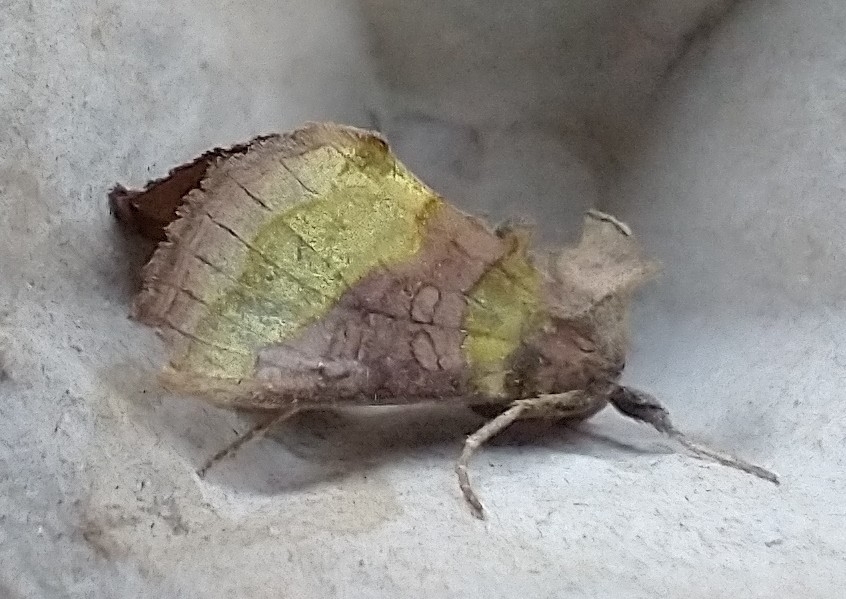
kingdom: Animalia
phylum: Arthropoda
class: Insecta
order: Lepidoptera
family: Noctuidae
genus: Diachrysia
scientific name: Diachrysia chrysitis
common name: Burnished brass
